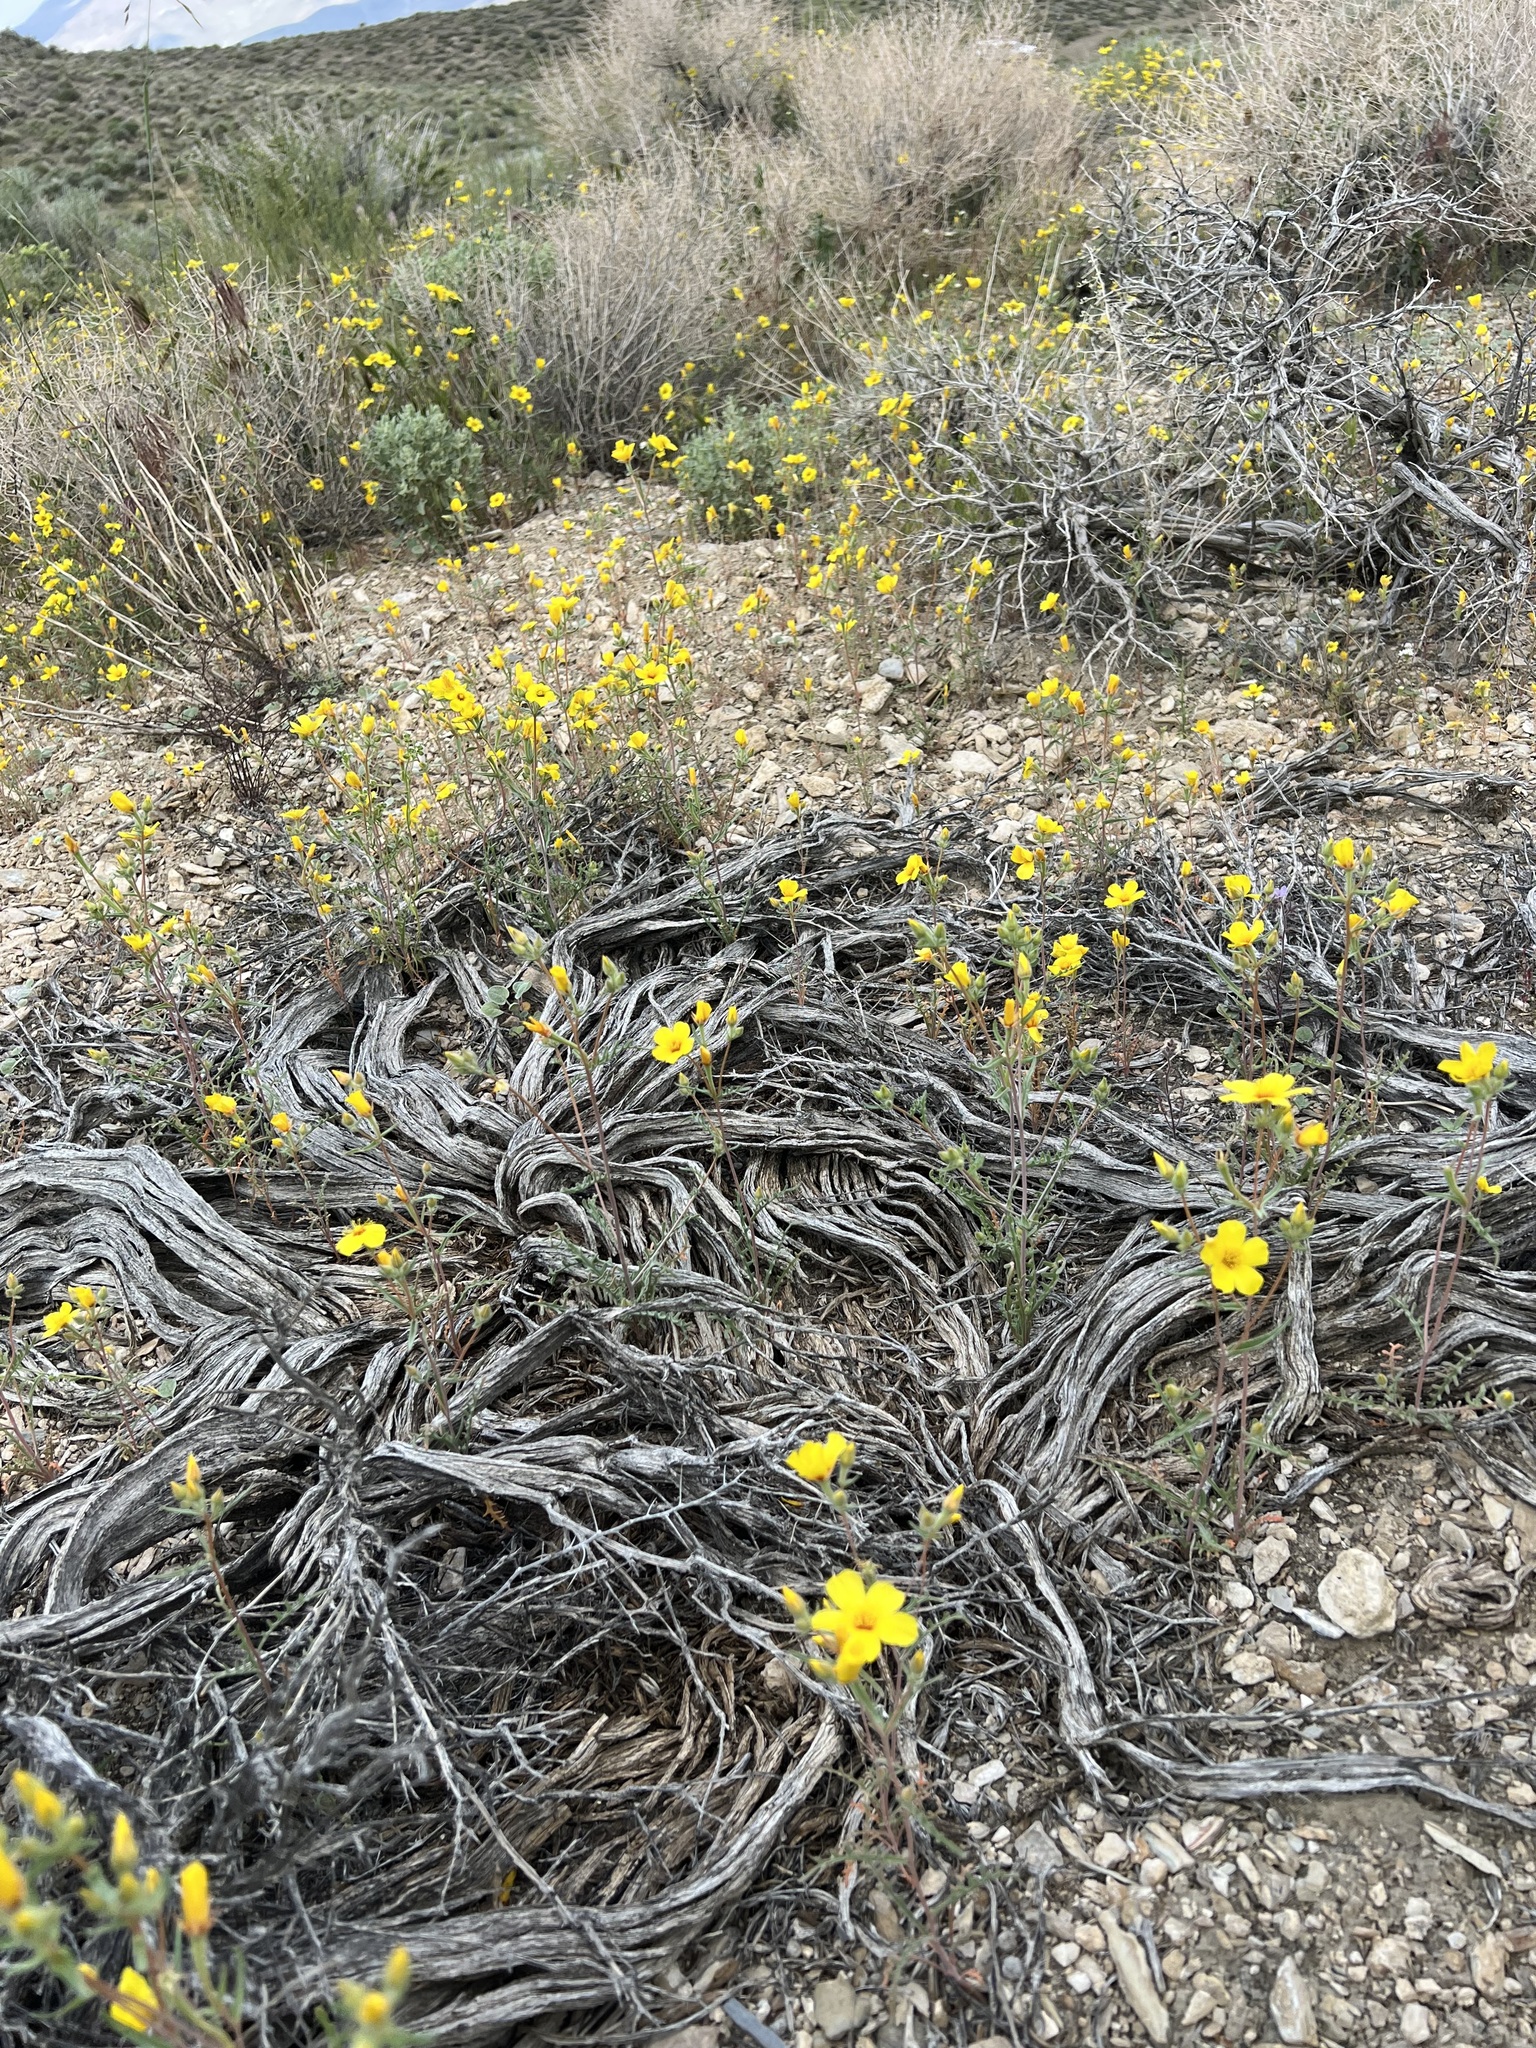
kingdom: Plantae
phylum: Tracheophyta
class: Magnoliopsida
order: Cornales
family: Loasaceae
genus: Mentzelia
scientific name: Mentzelia nitens
